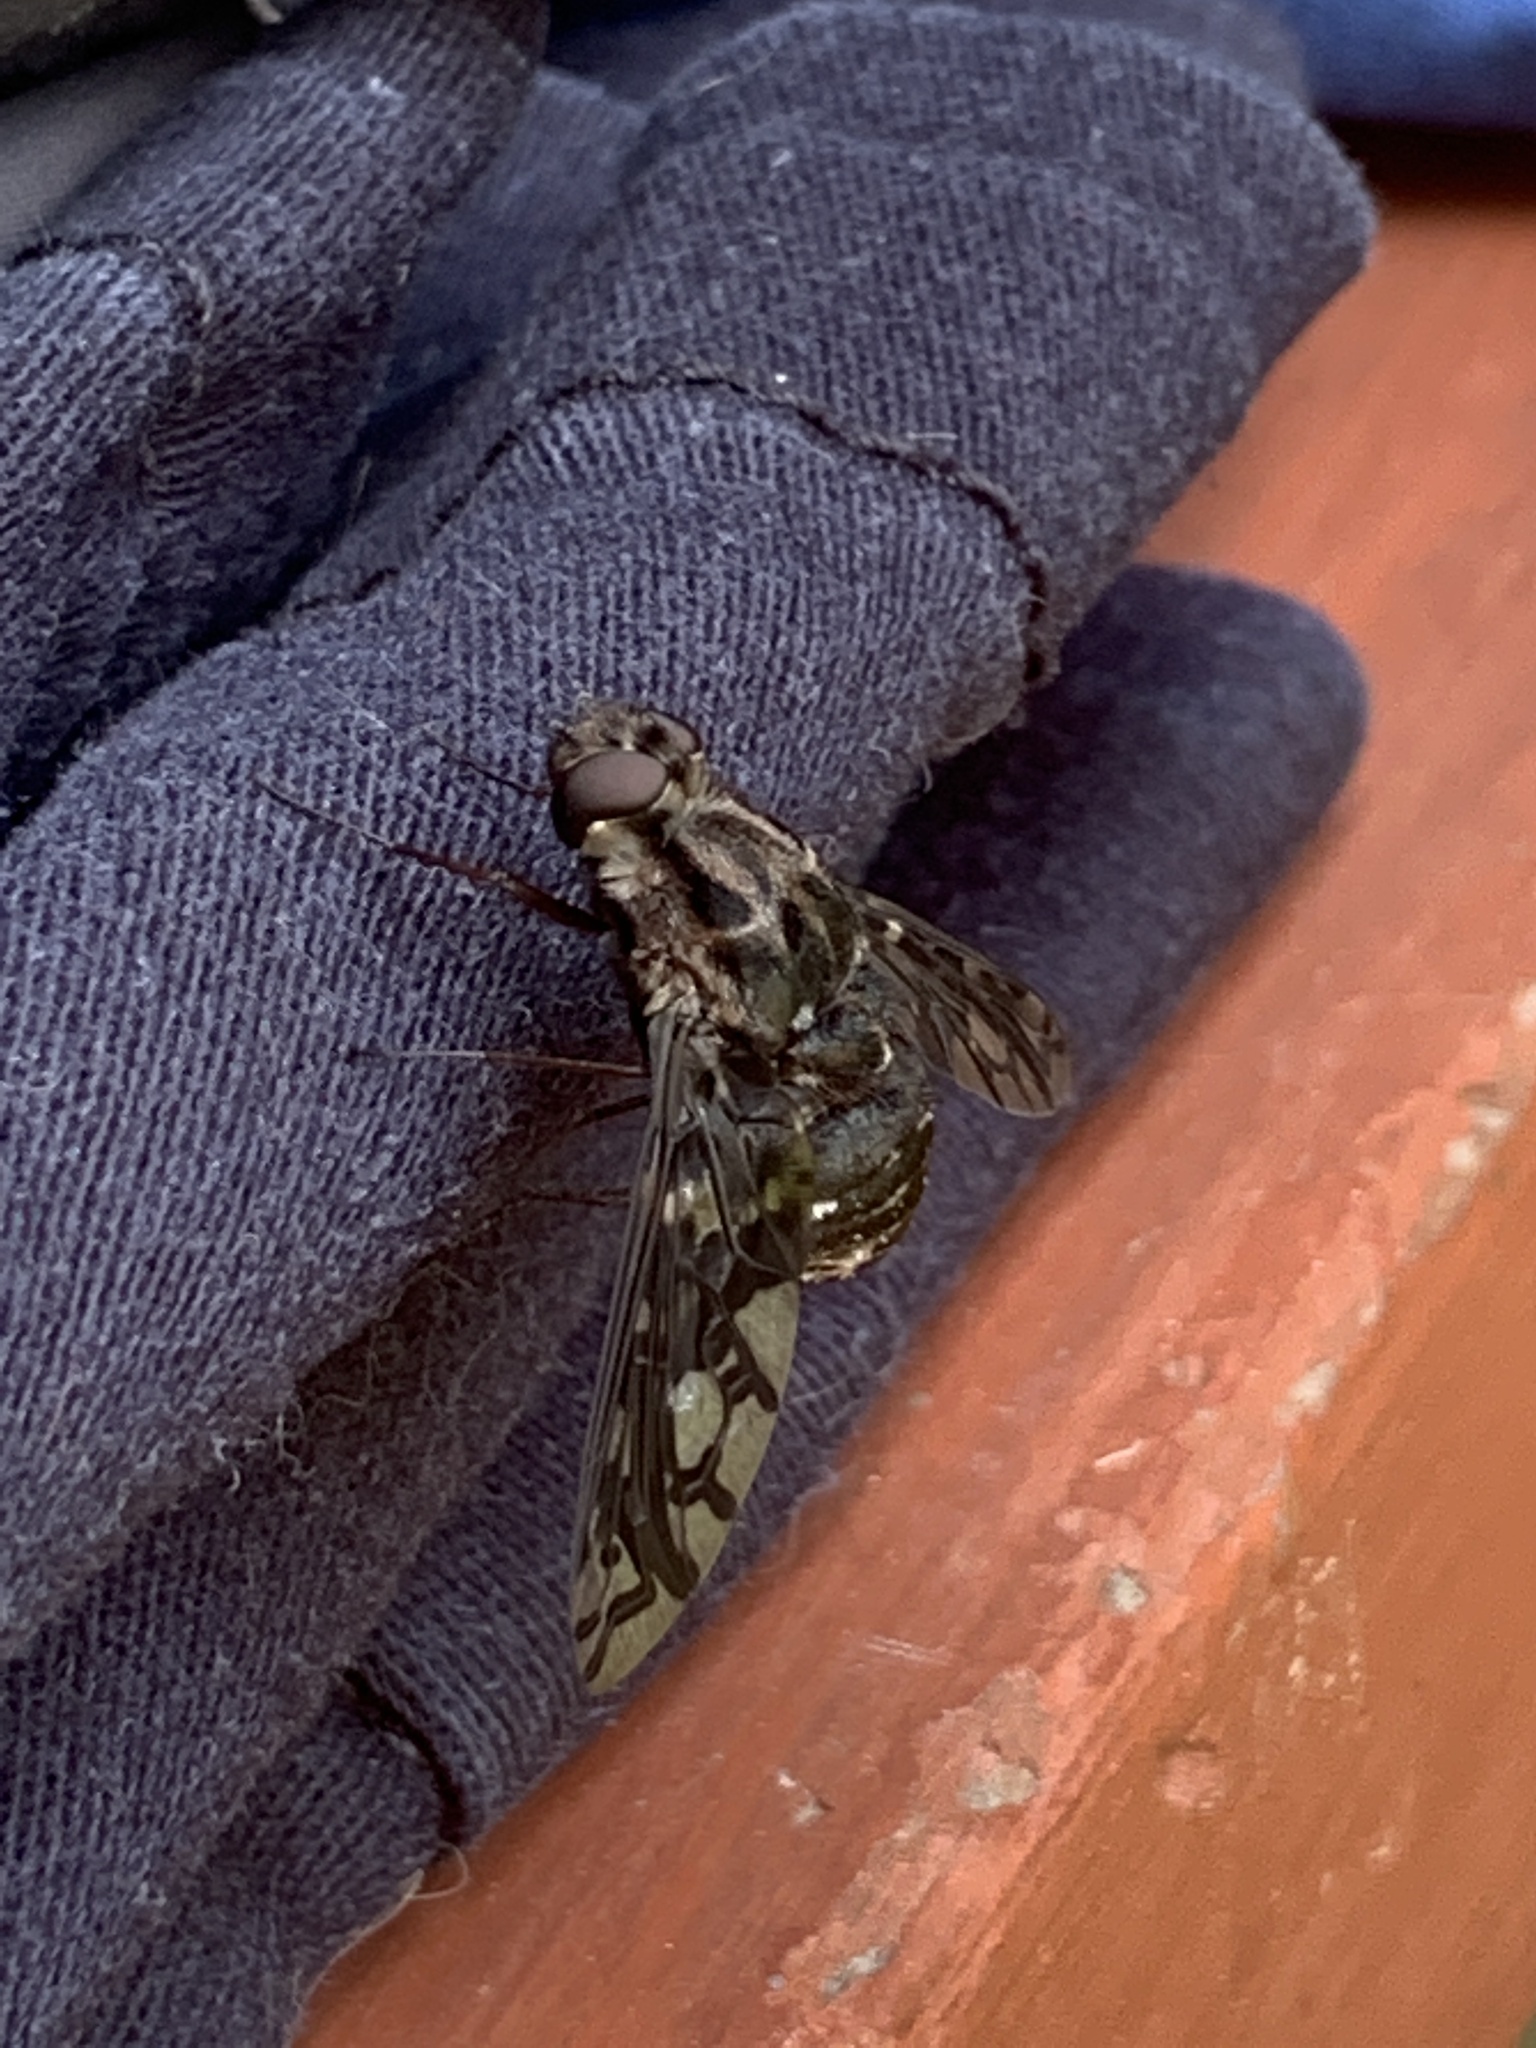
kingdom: Animalia
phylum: Arthropoda
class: Insecta
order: Diptera
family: Bombyliidae
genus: Xenox
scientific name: Xenox tigrinus
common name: Tiger bee fly
